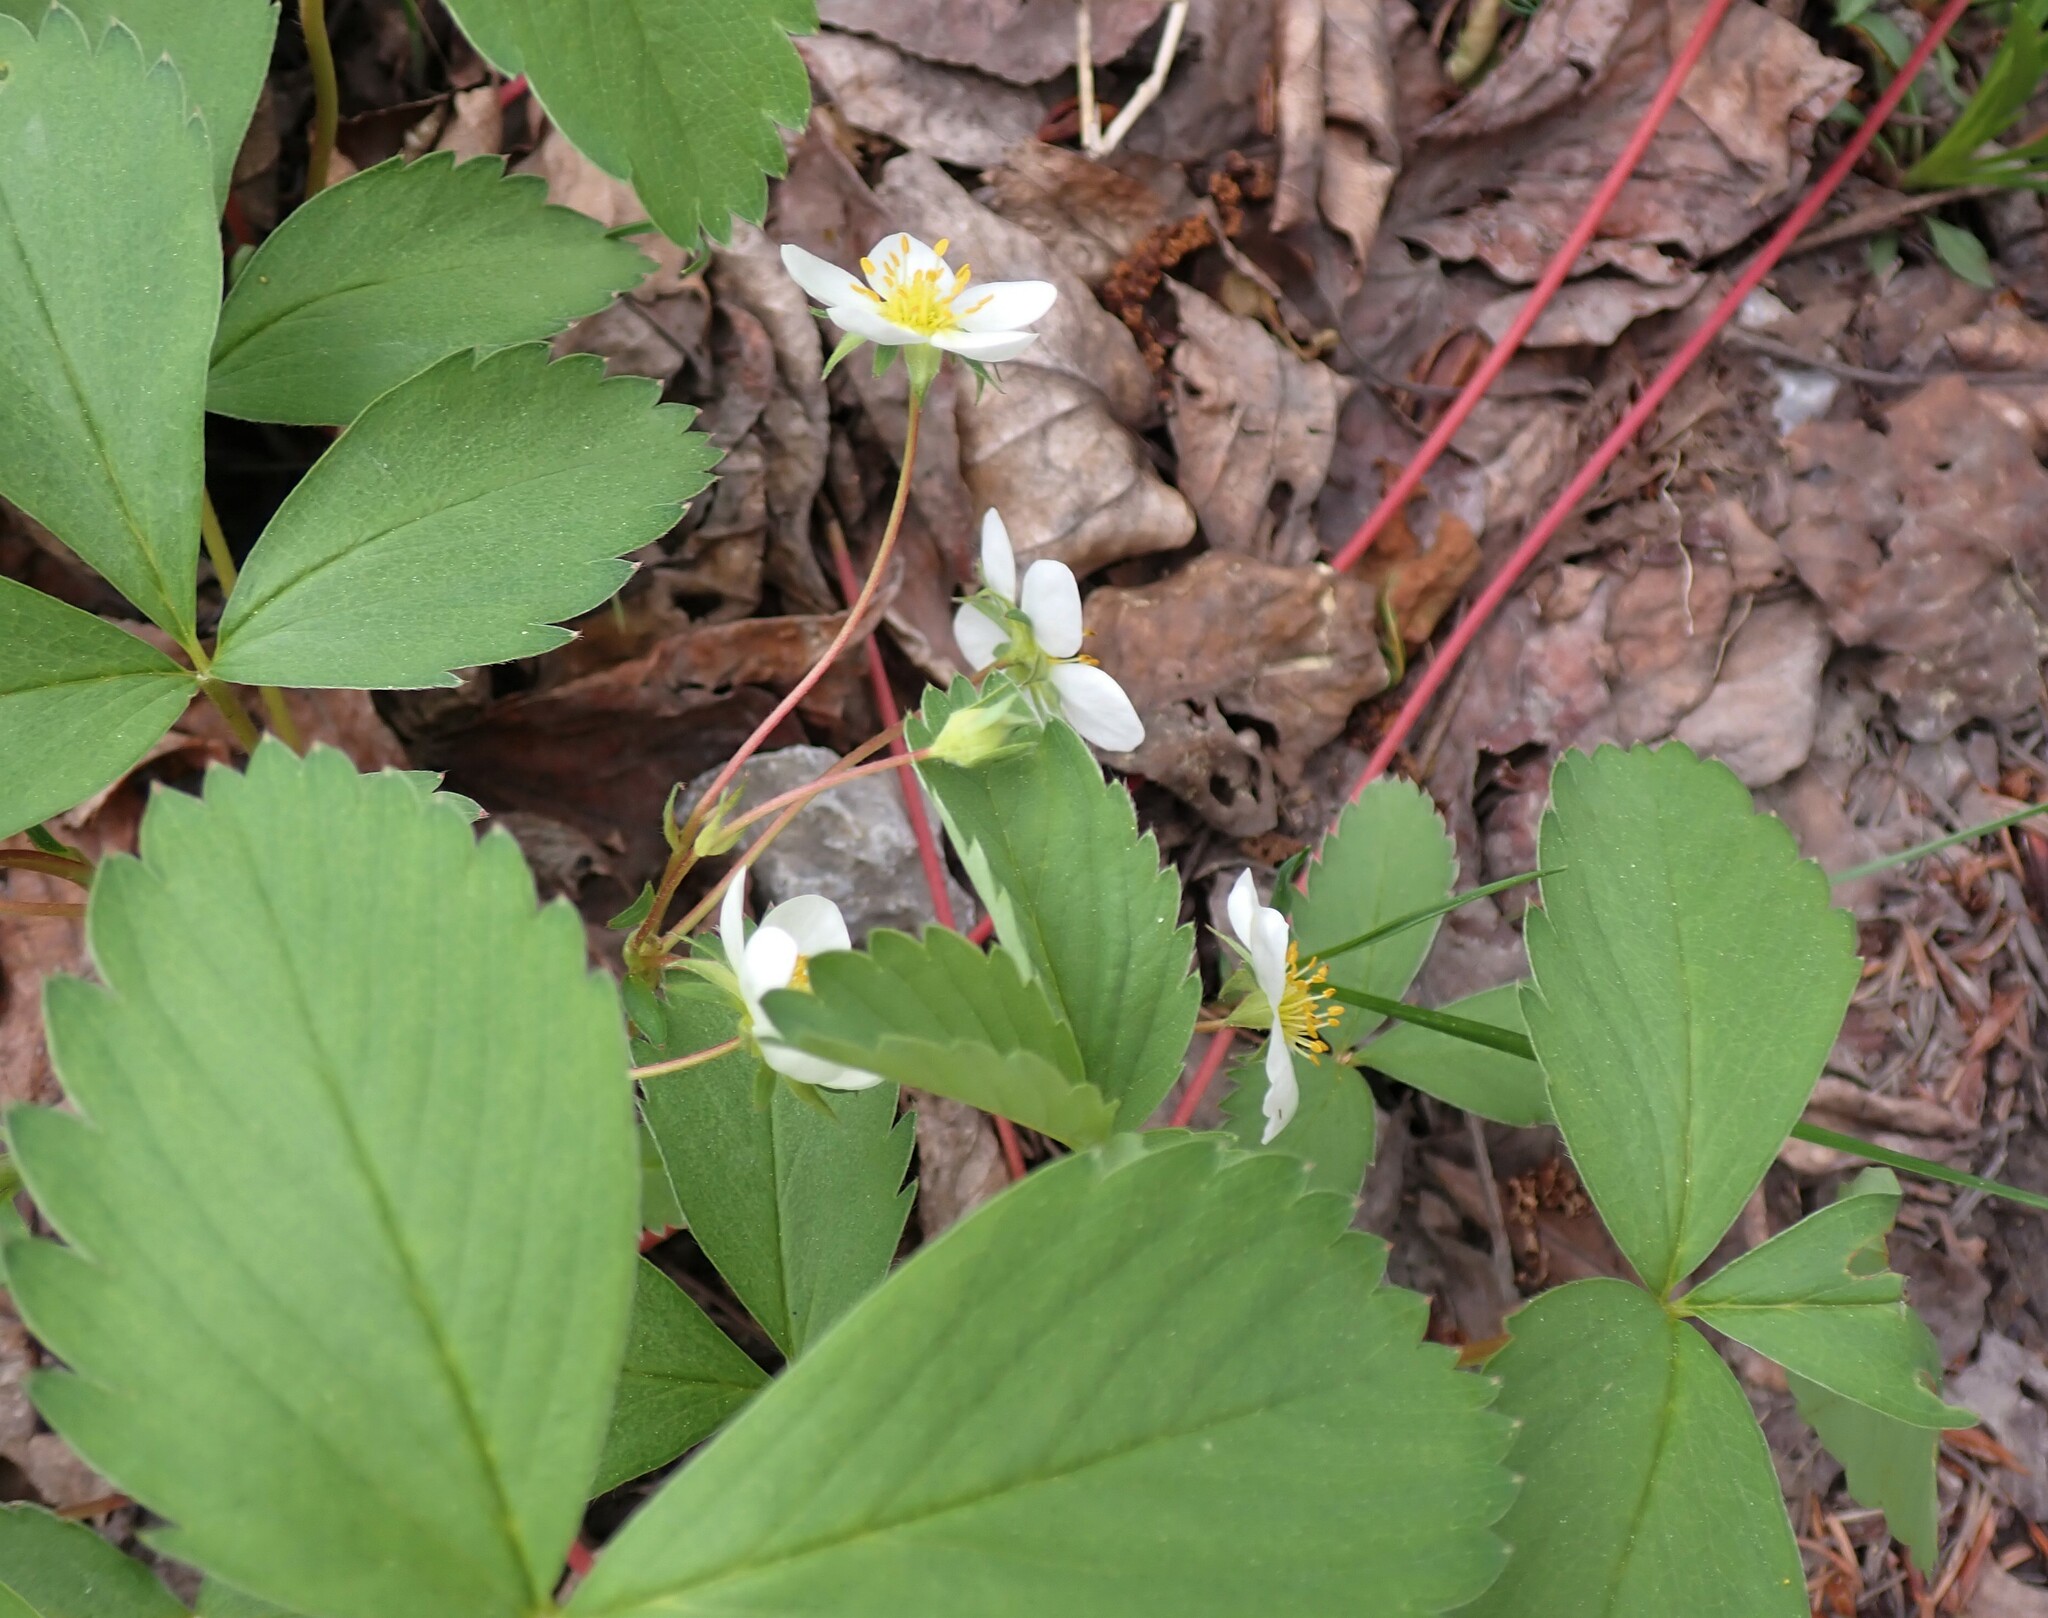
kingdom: Plantae
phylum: Tracheophyta
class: Magnoliopsida
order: Rosales
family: Rosaceae
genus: Fragaria
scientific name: Fragaria virginiana
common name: Thickleaved wild strawberry
